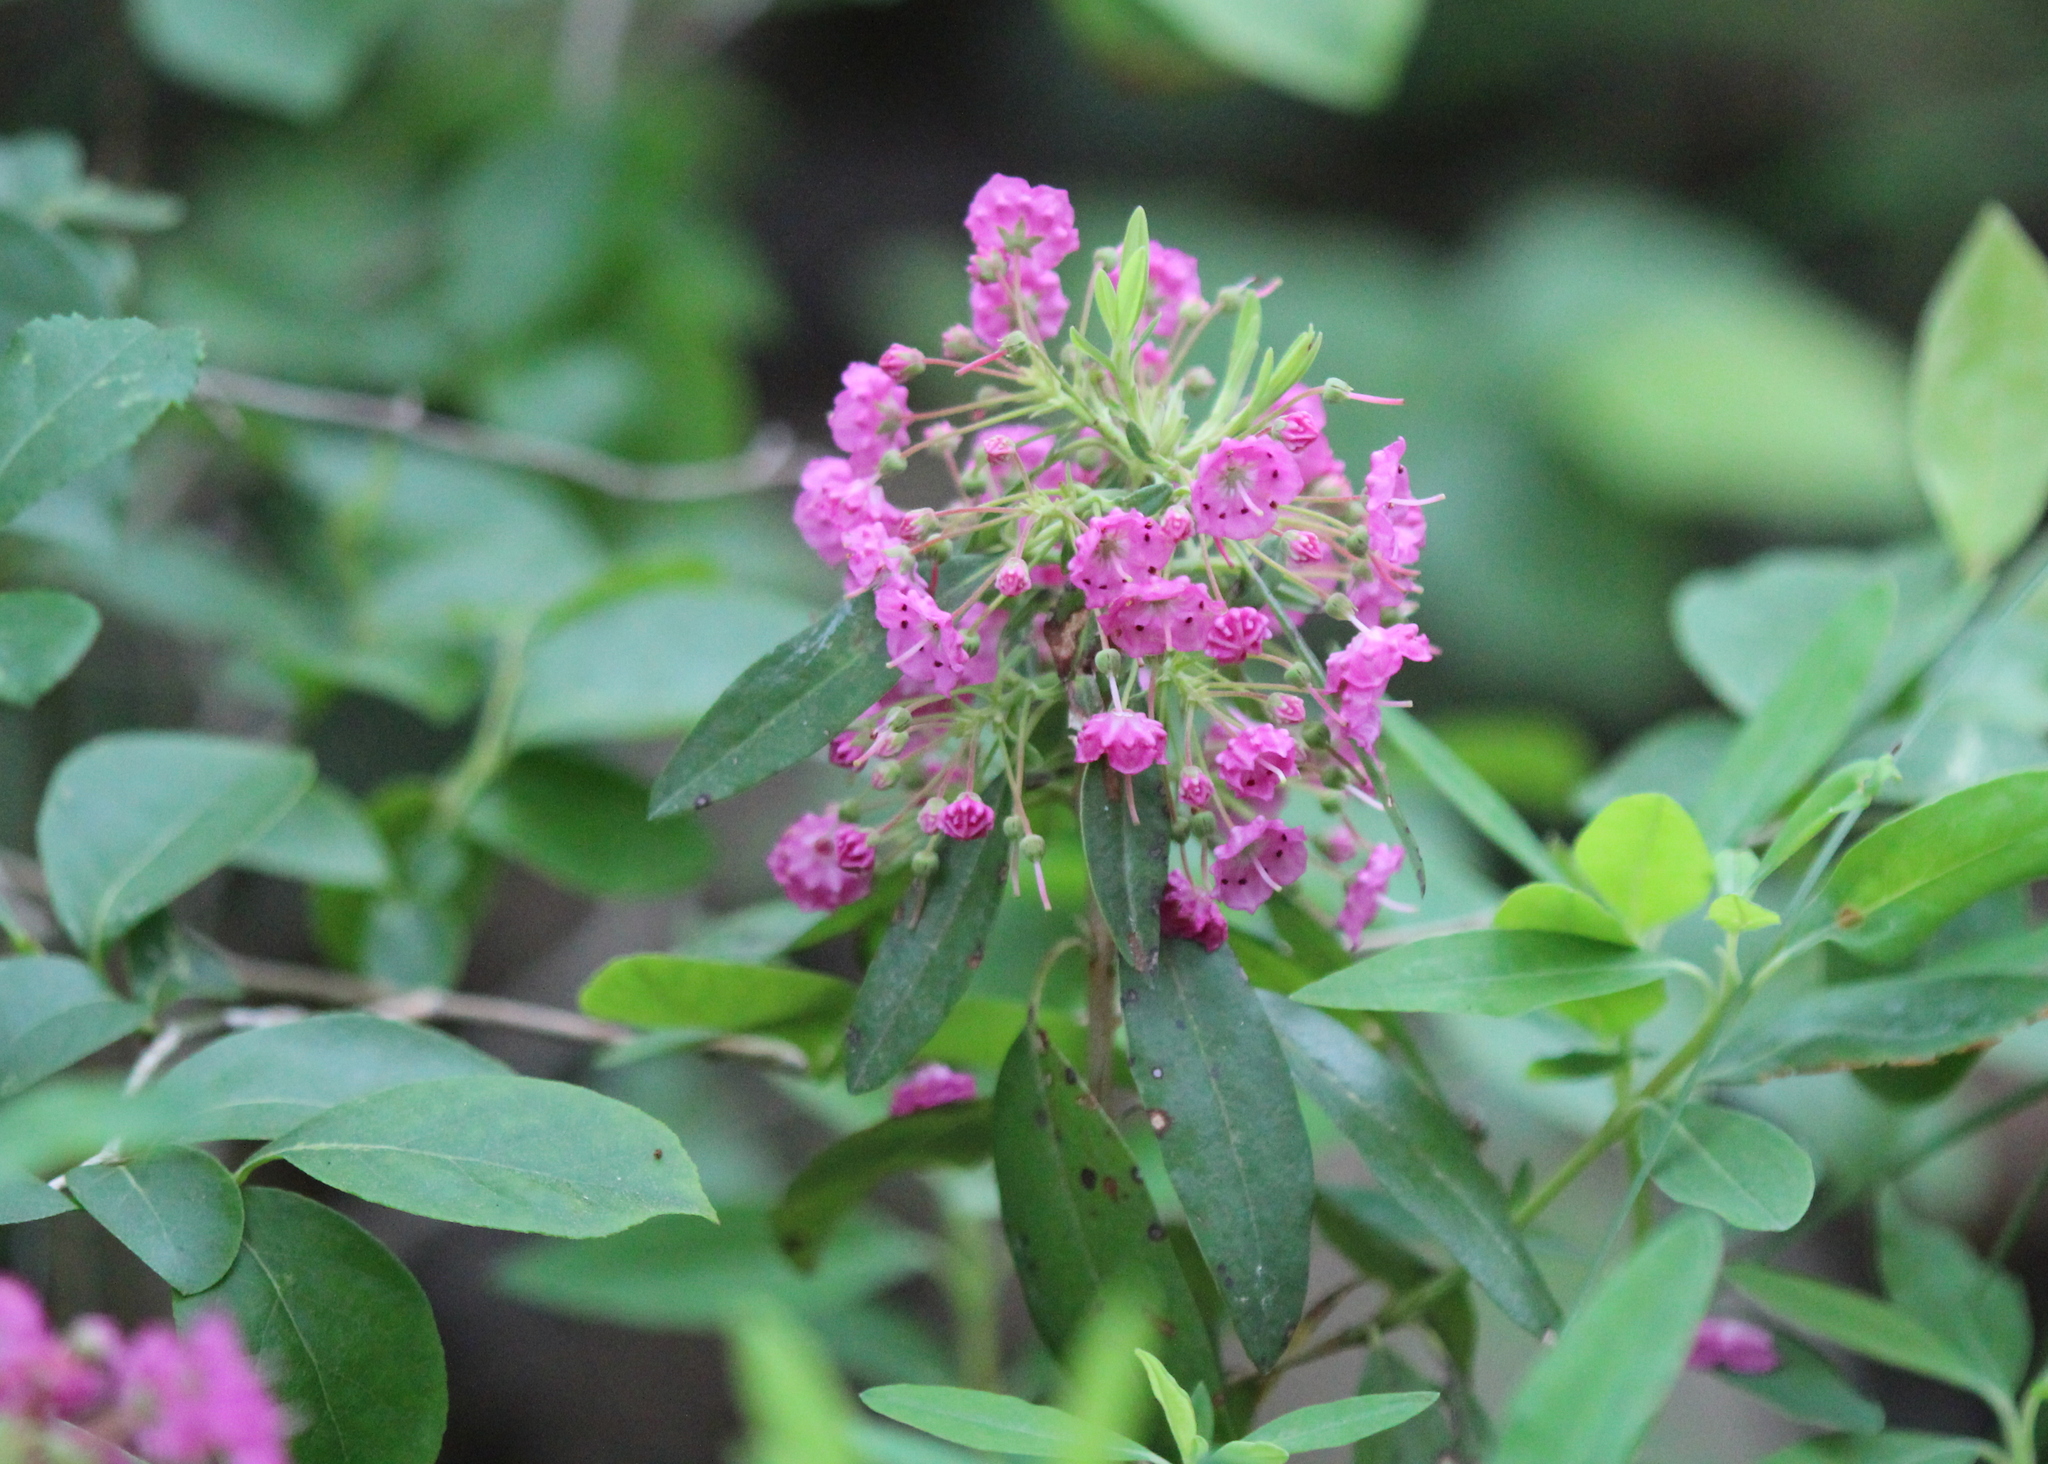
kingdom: Plantae
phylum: Tracheophyta
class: Magnoliopsida
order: Ericales
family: Ericaceae
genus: Kalmia
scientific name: Kalmia angustifolia
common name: Sheep-laurel
